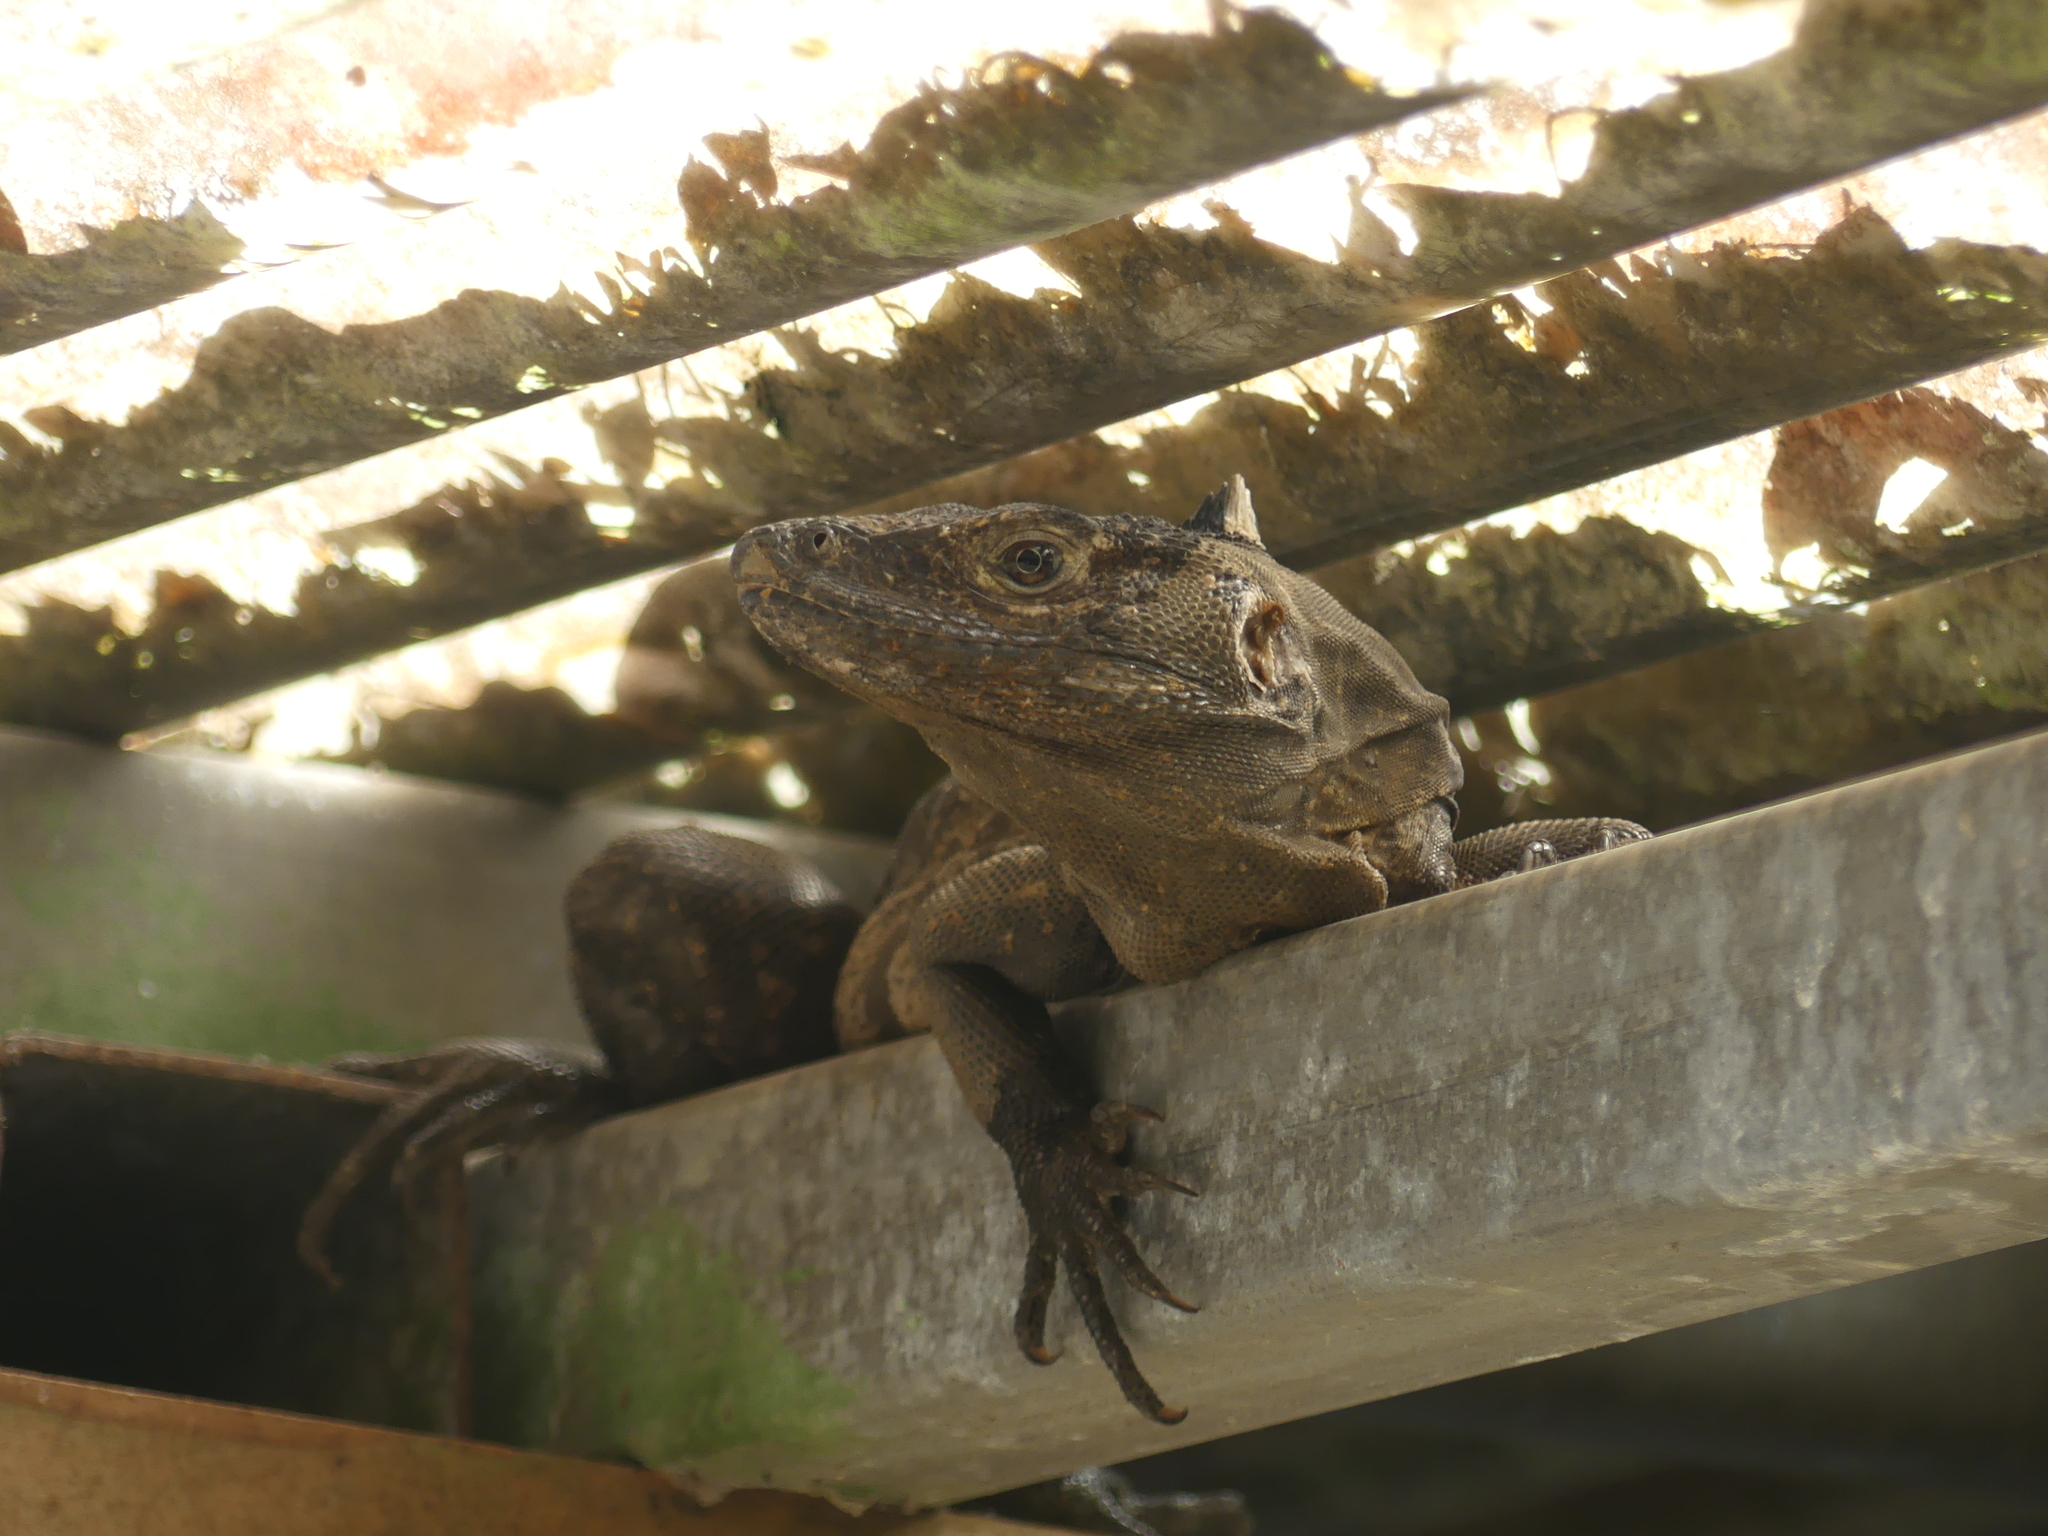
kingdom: Animalia
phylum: Chordata
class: Squamata
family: Iguanidae
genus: Ctenosaura
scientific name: Ctenosaura similis
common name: Black spiny-tailed iguana
